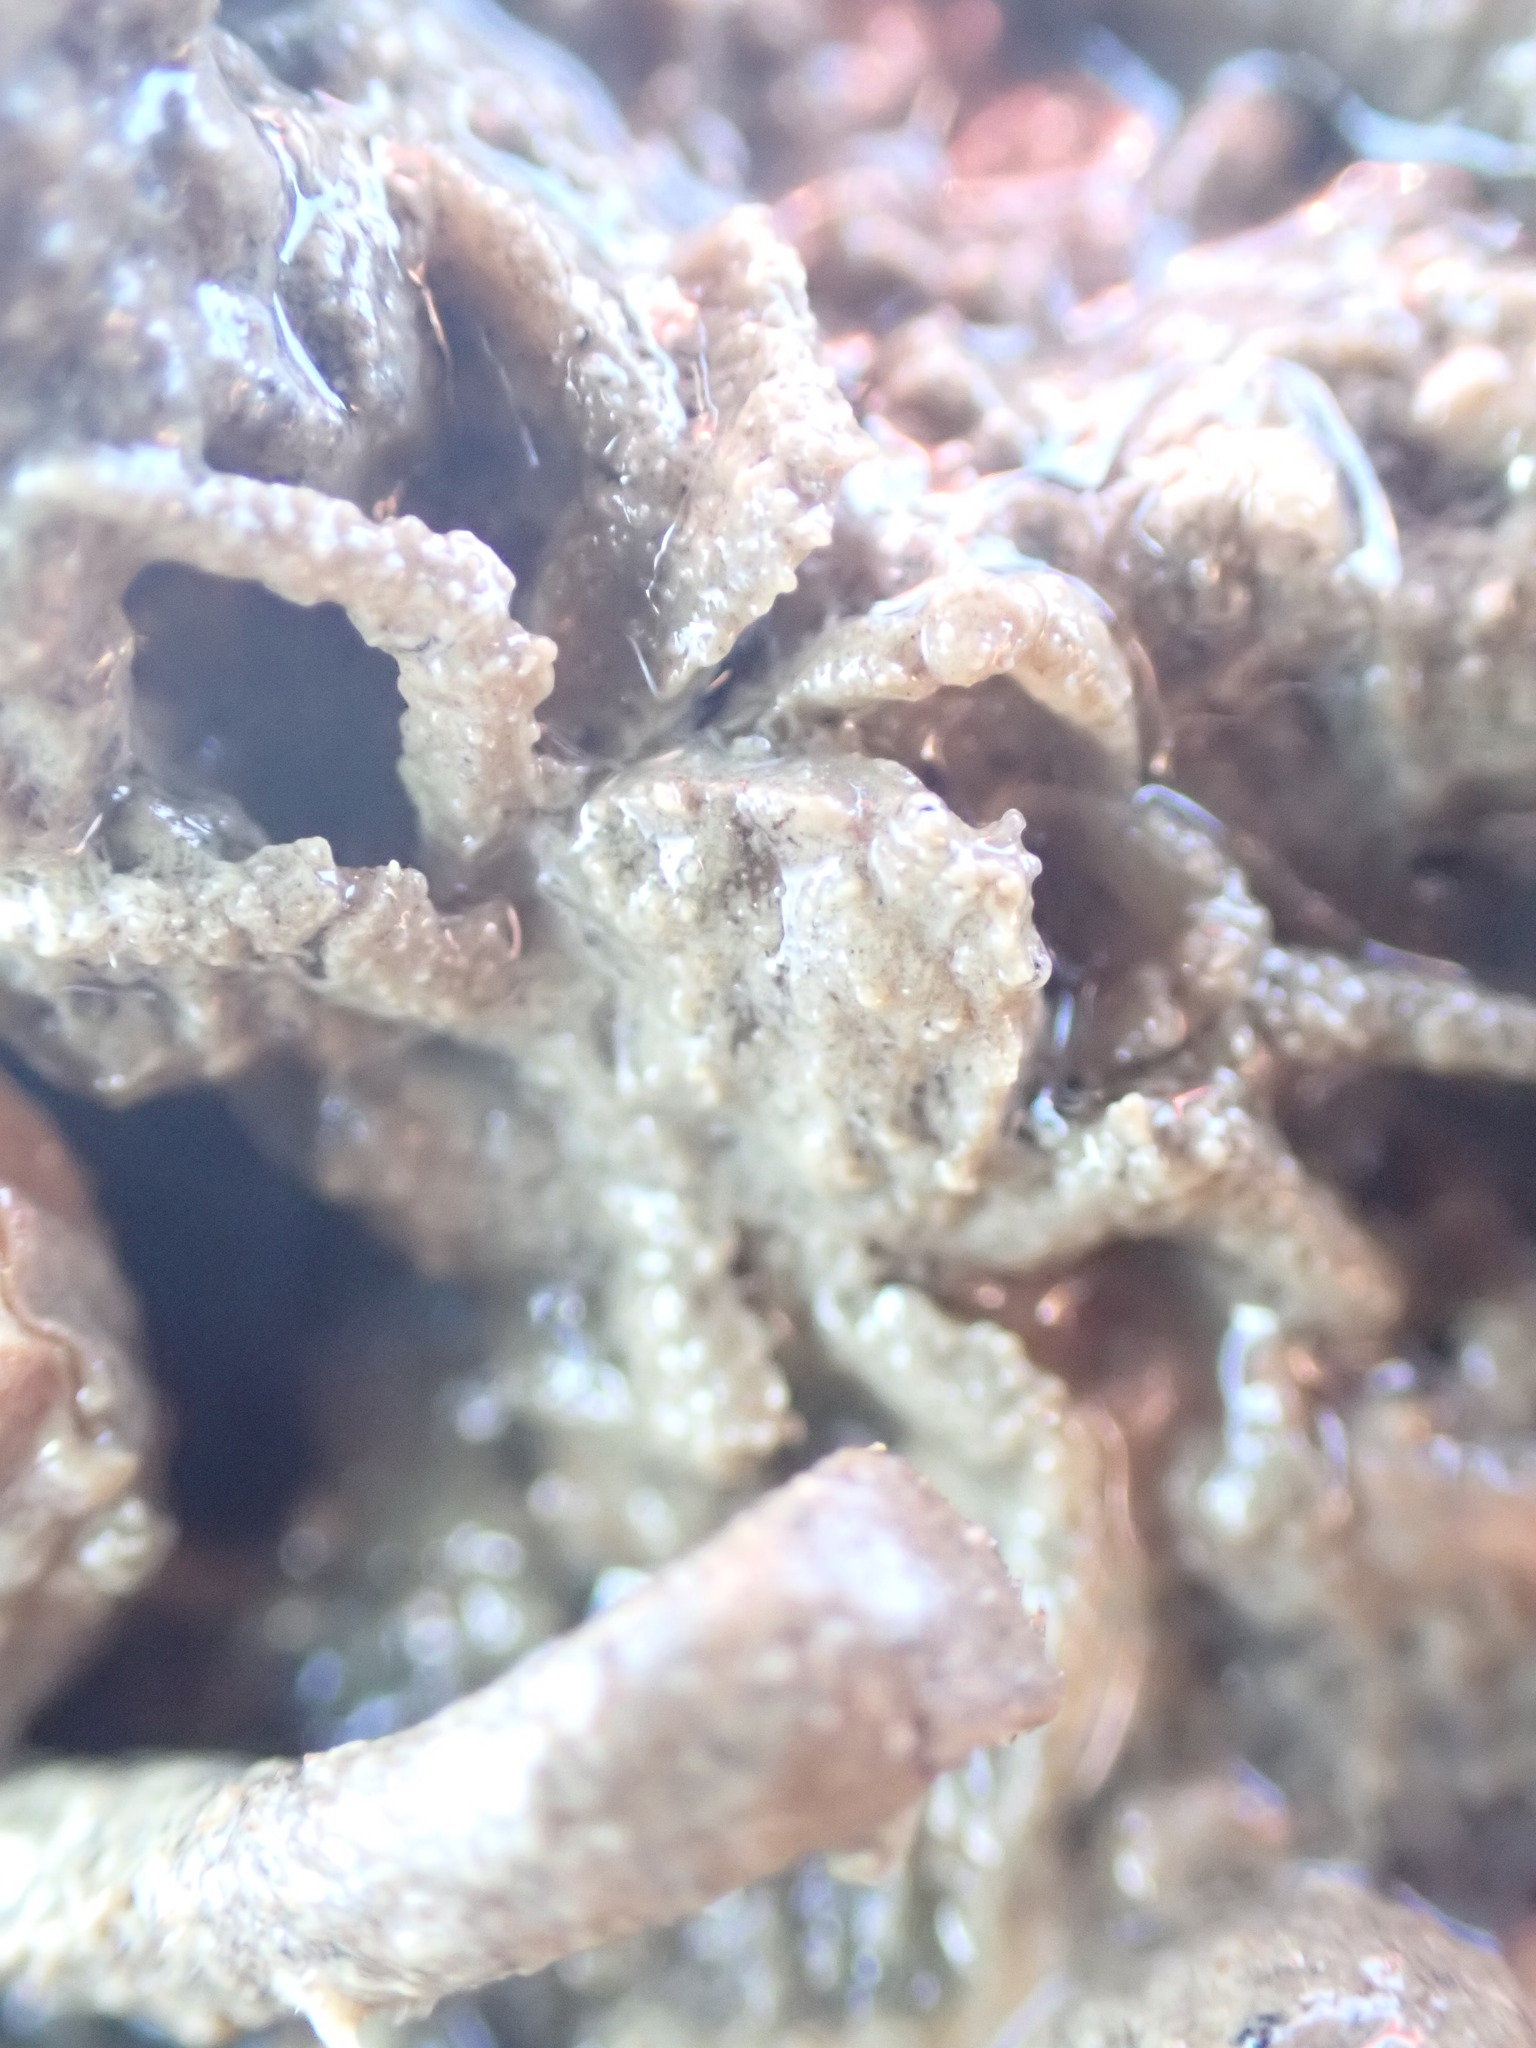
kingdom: Animalia
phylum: Arthropoda
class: Malacostraca
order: Decapoda
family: Hymenosomatidae
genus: Neohymenicus
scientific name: Neohymenicus pubescens
